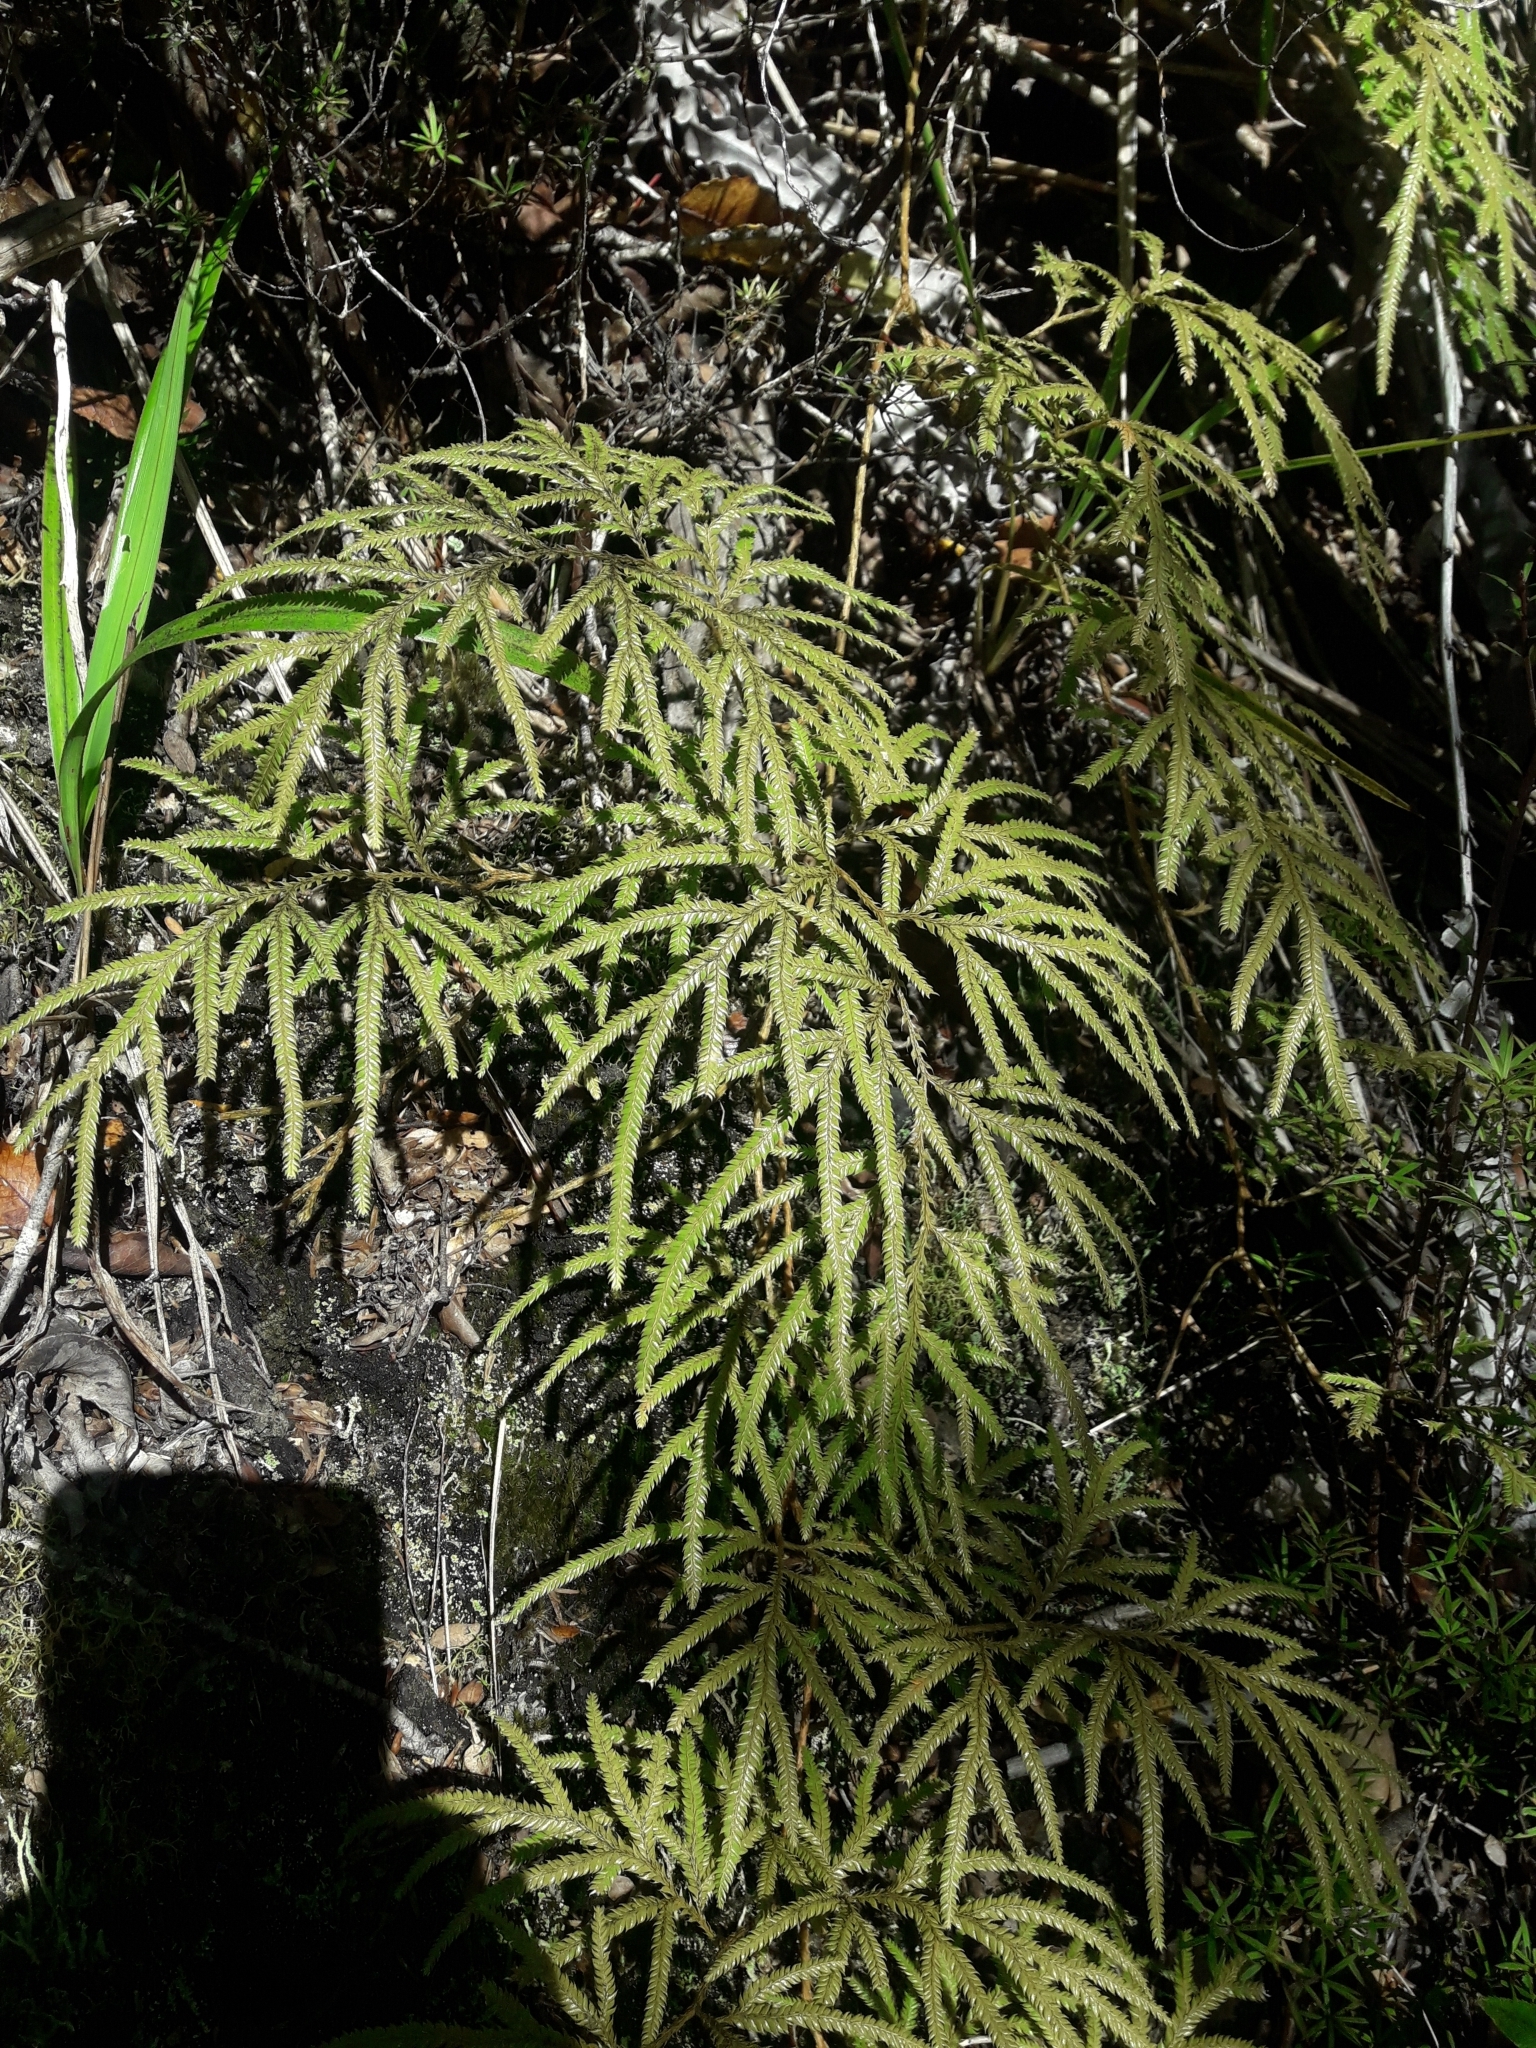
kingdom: Plantae
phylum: Tracheophyta
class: Lycopodiopsida
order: Lycopodiales
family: Lycopodiaceae
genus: Lycopodium
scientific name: Lycopodium volubile
